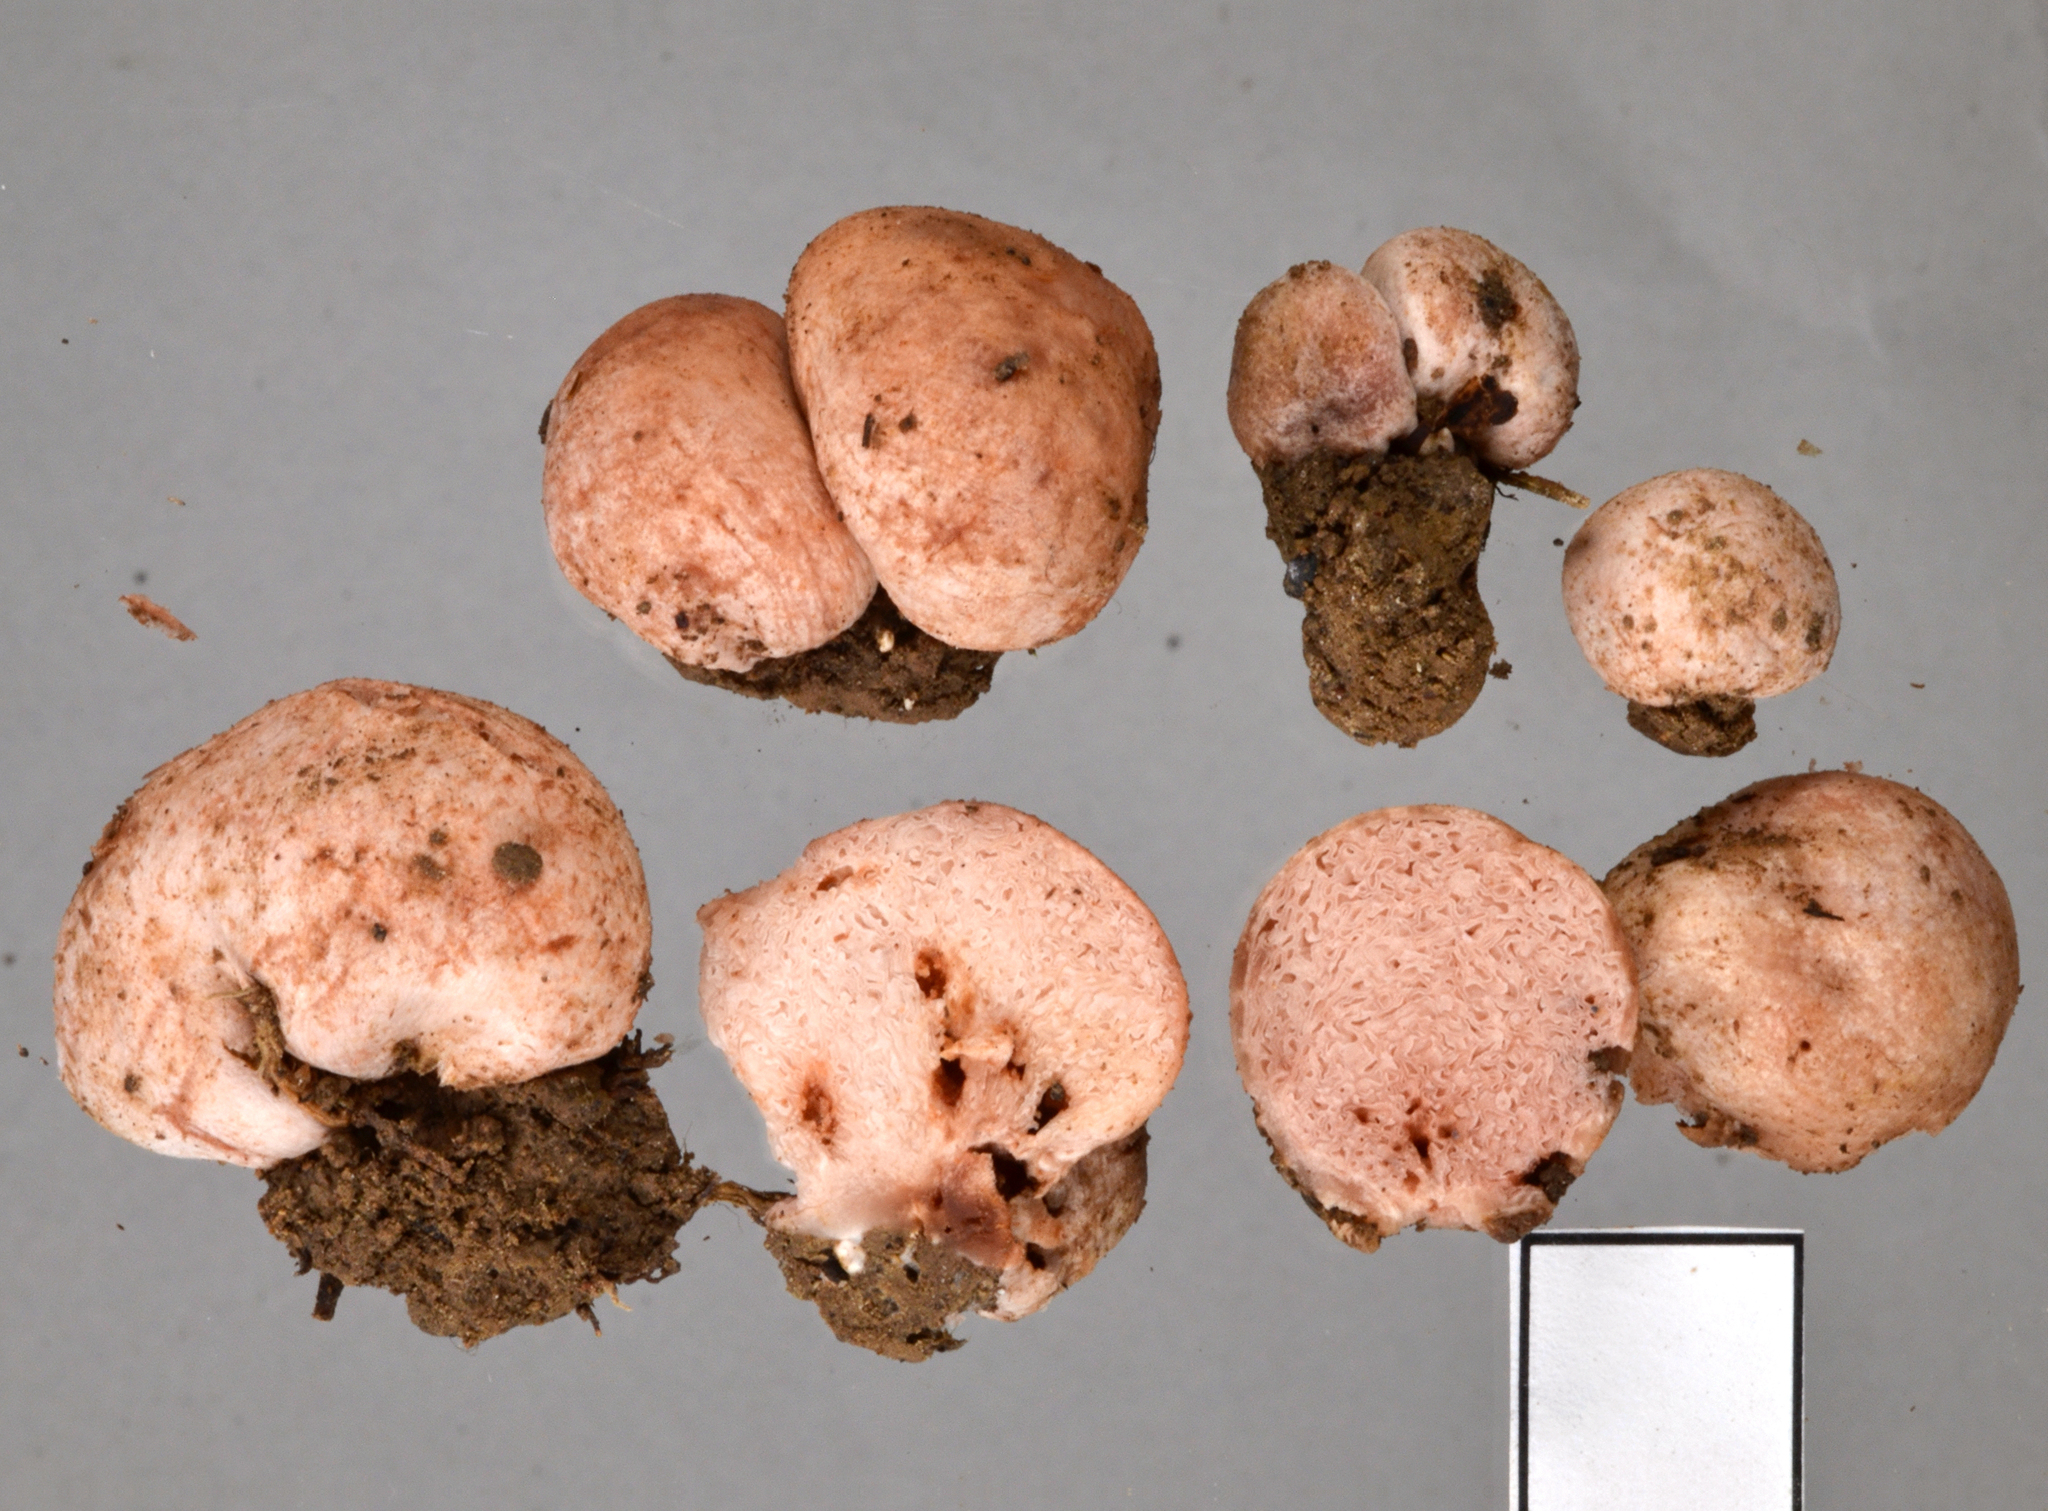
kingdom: Fungi
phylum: Basidiomycota
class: Agaricomycetes
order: Agaricales
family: Hydnangiaceae
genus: Hydnangium
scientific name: Hydnangium kanuka
